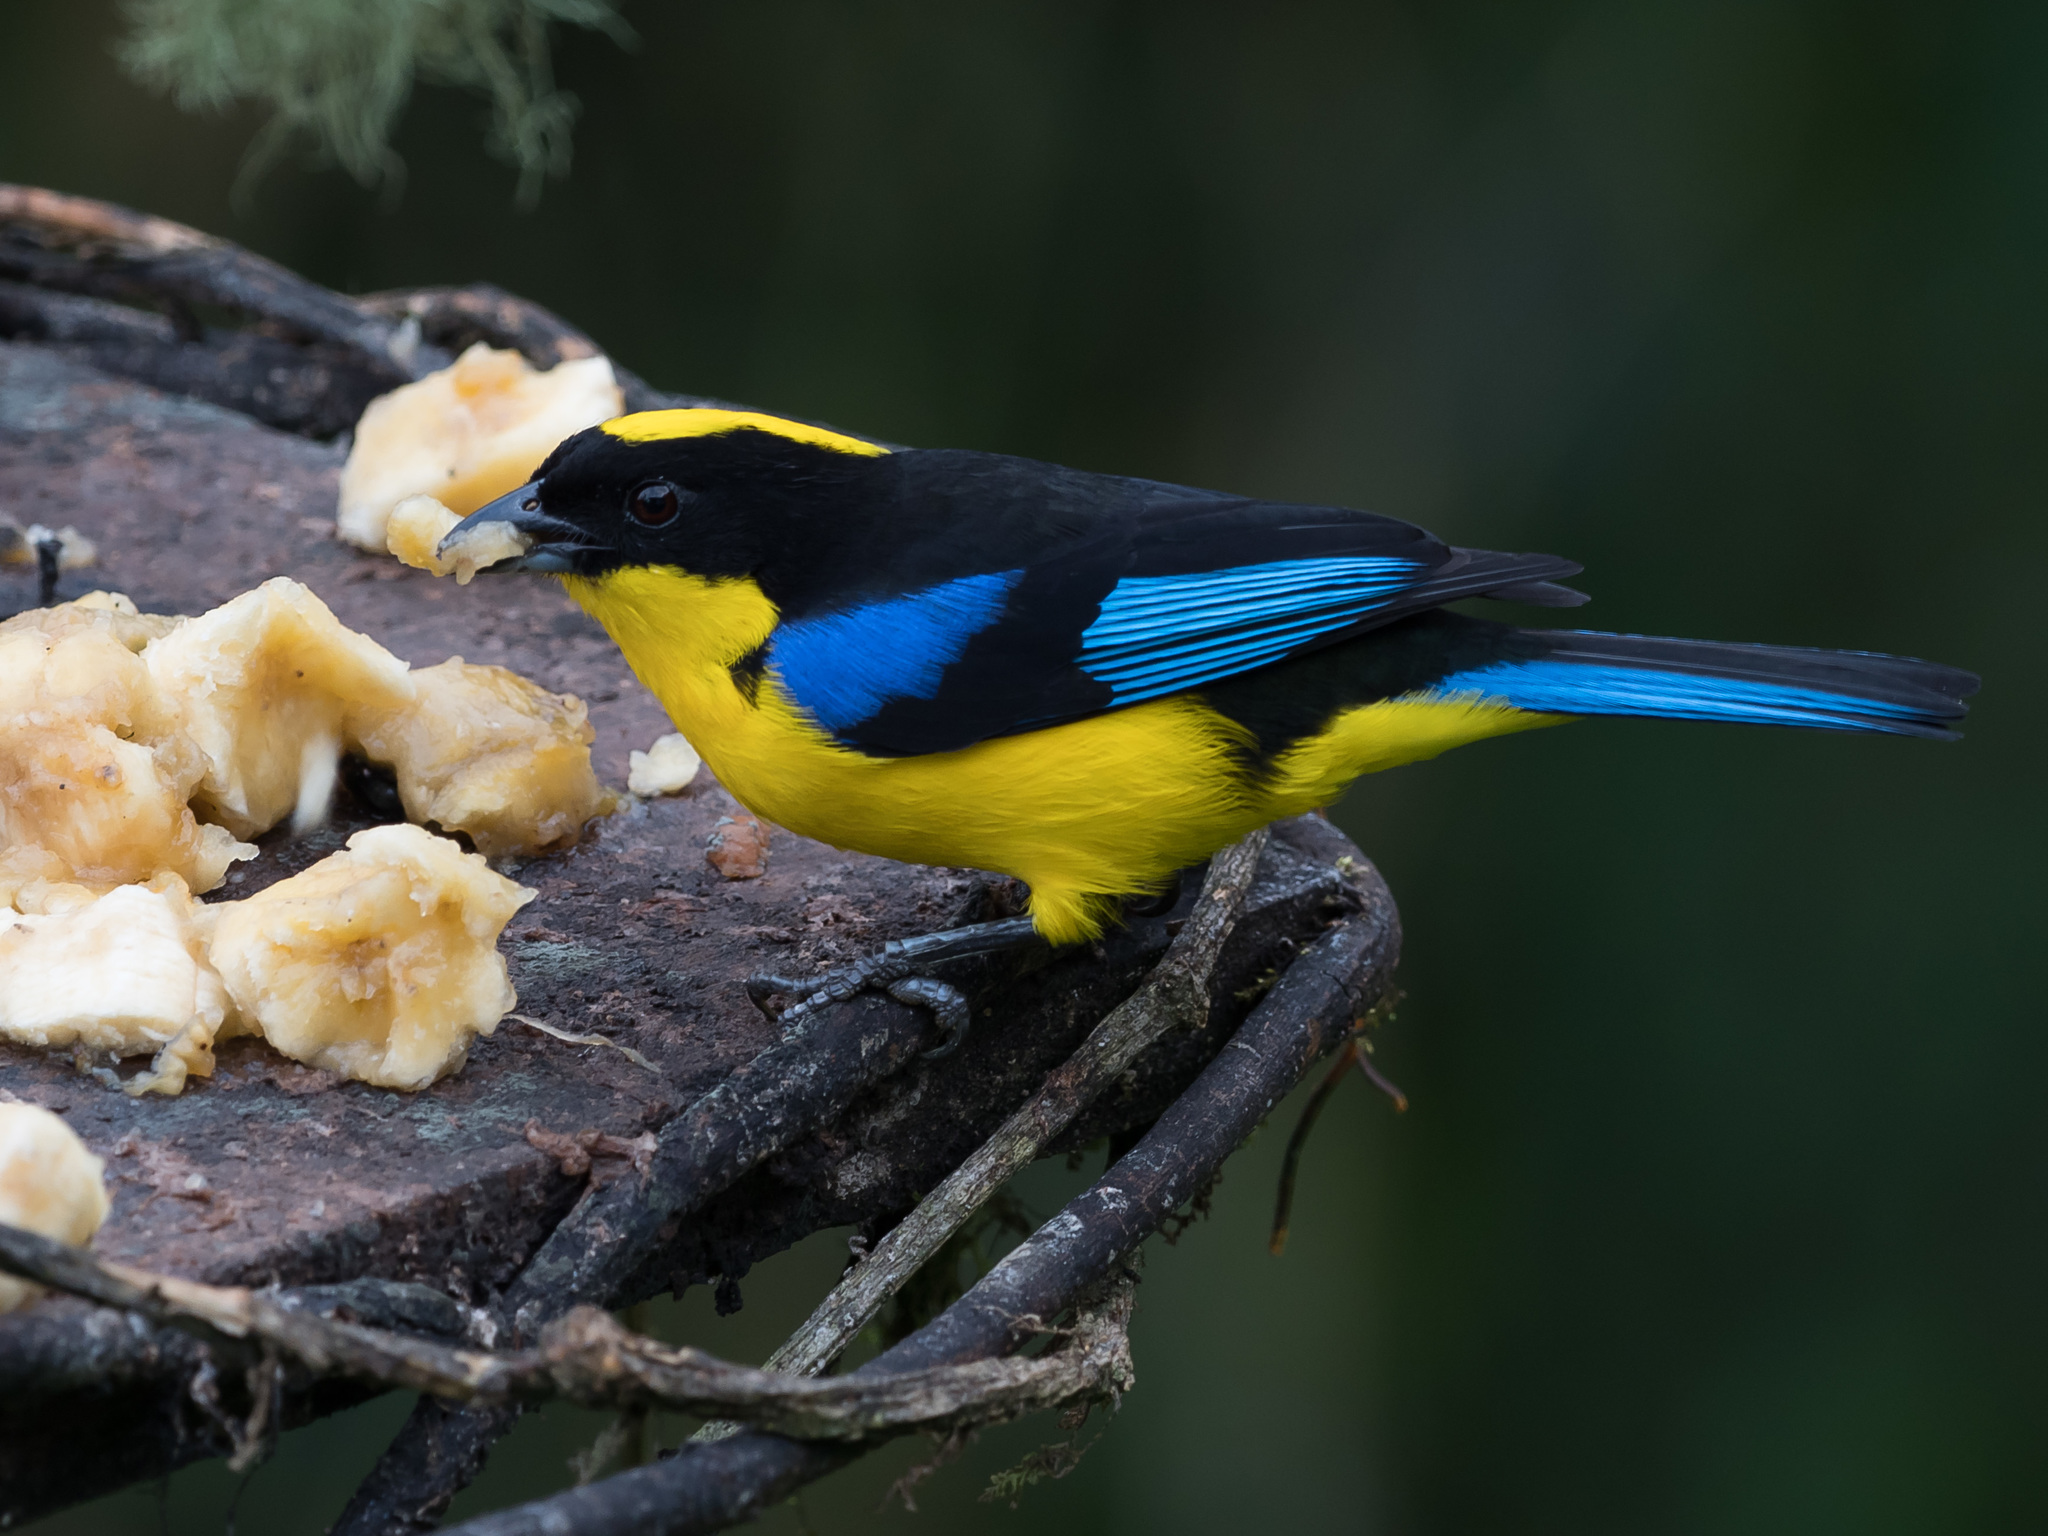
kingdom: Animalia
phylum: Chordata
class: Aves
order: Passeriformes
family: Thraupidae
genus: Anisognathus
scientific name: Anisognathus somptuosus
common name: Blue-winged mountain-tanager
